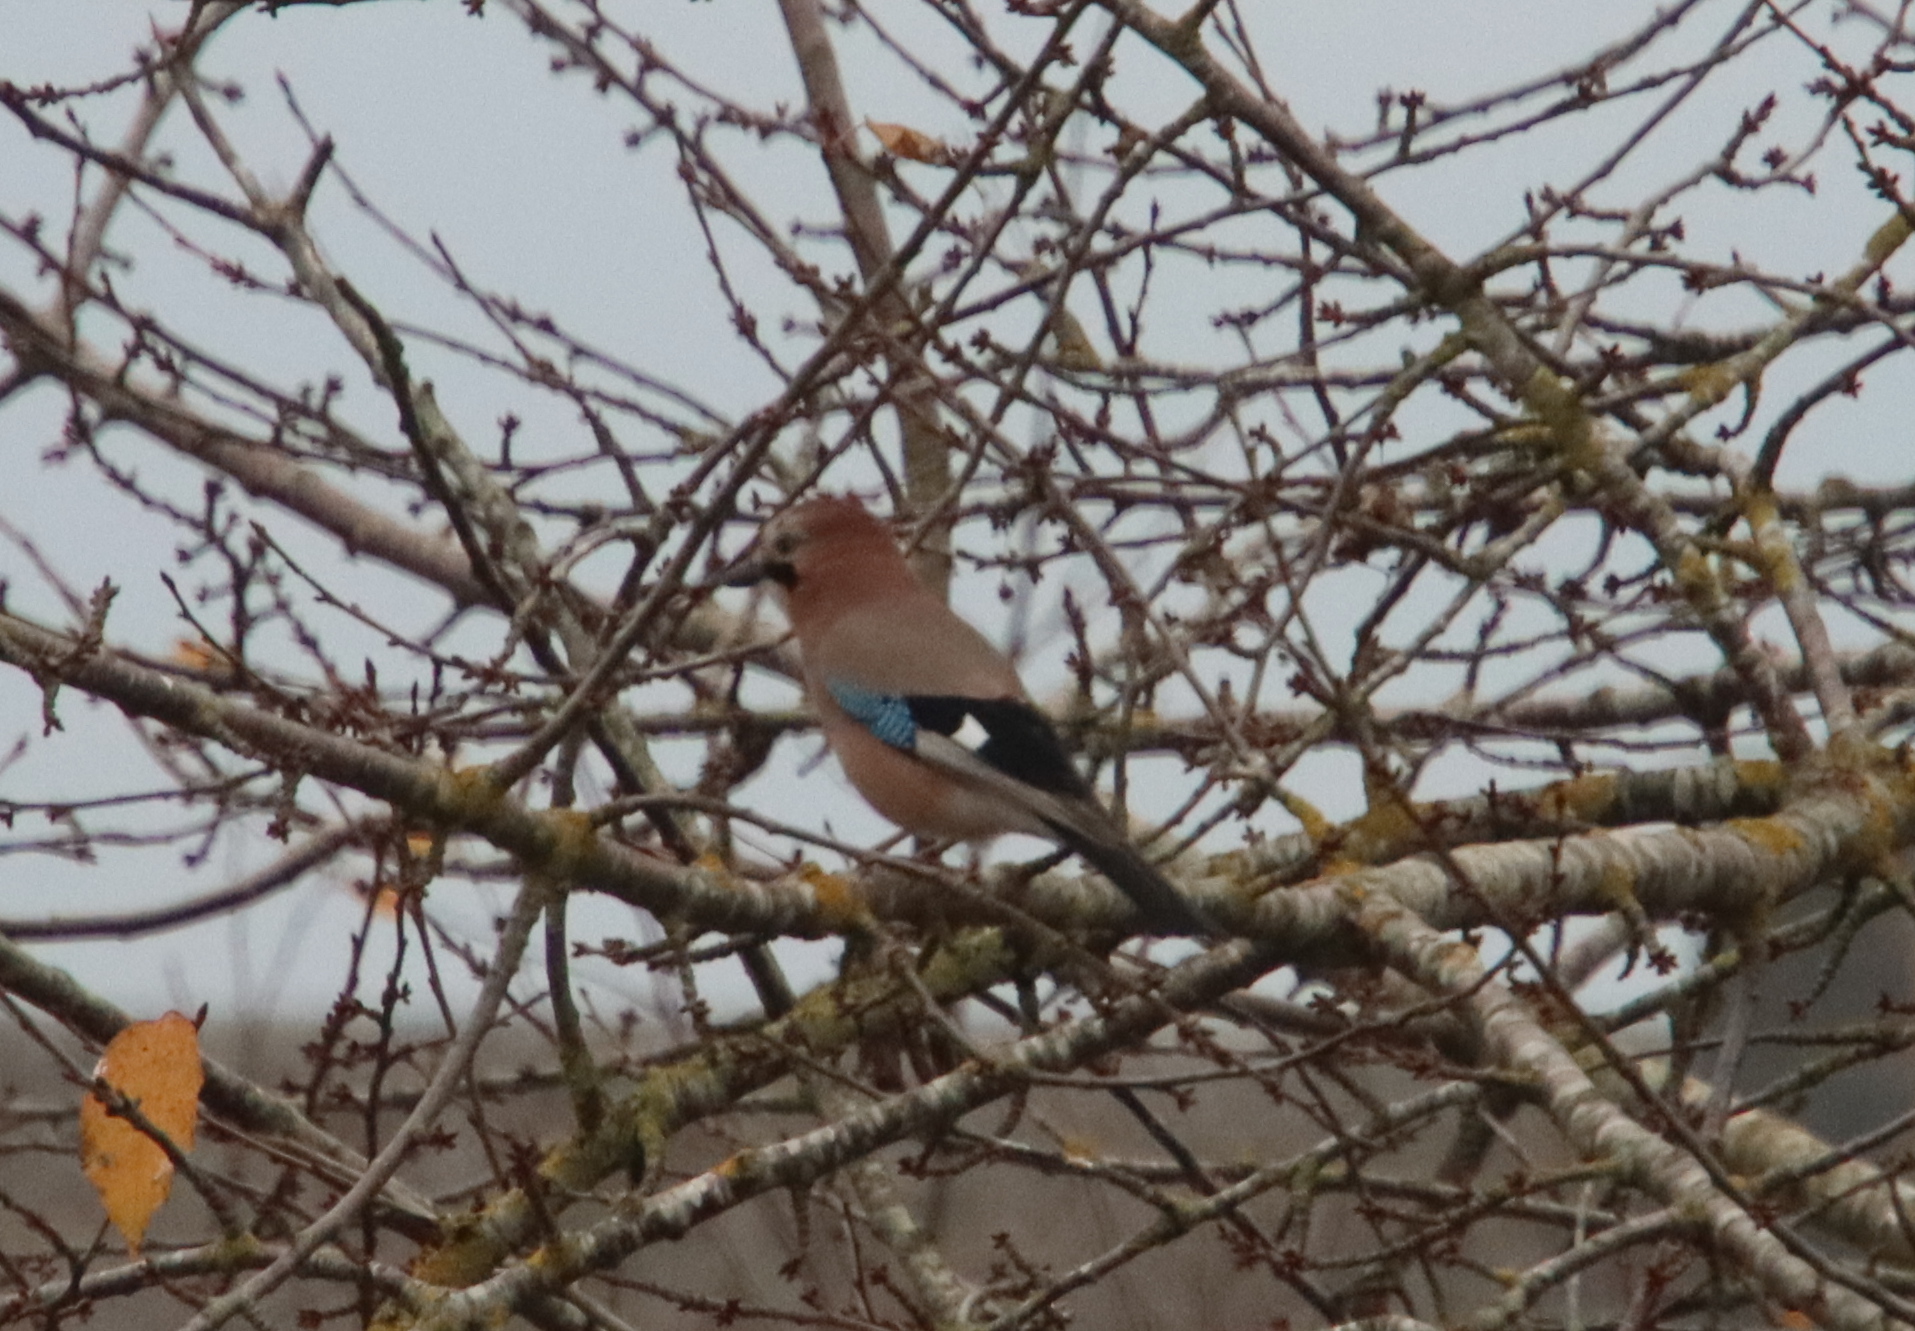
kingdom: Animalia
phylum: Chordata
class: Aves
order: Passeriformes
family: Corvidae
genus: Garrulus
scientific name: Garrulus glandarius
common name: Eurasian jay
